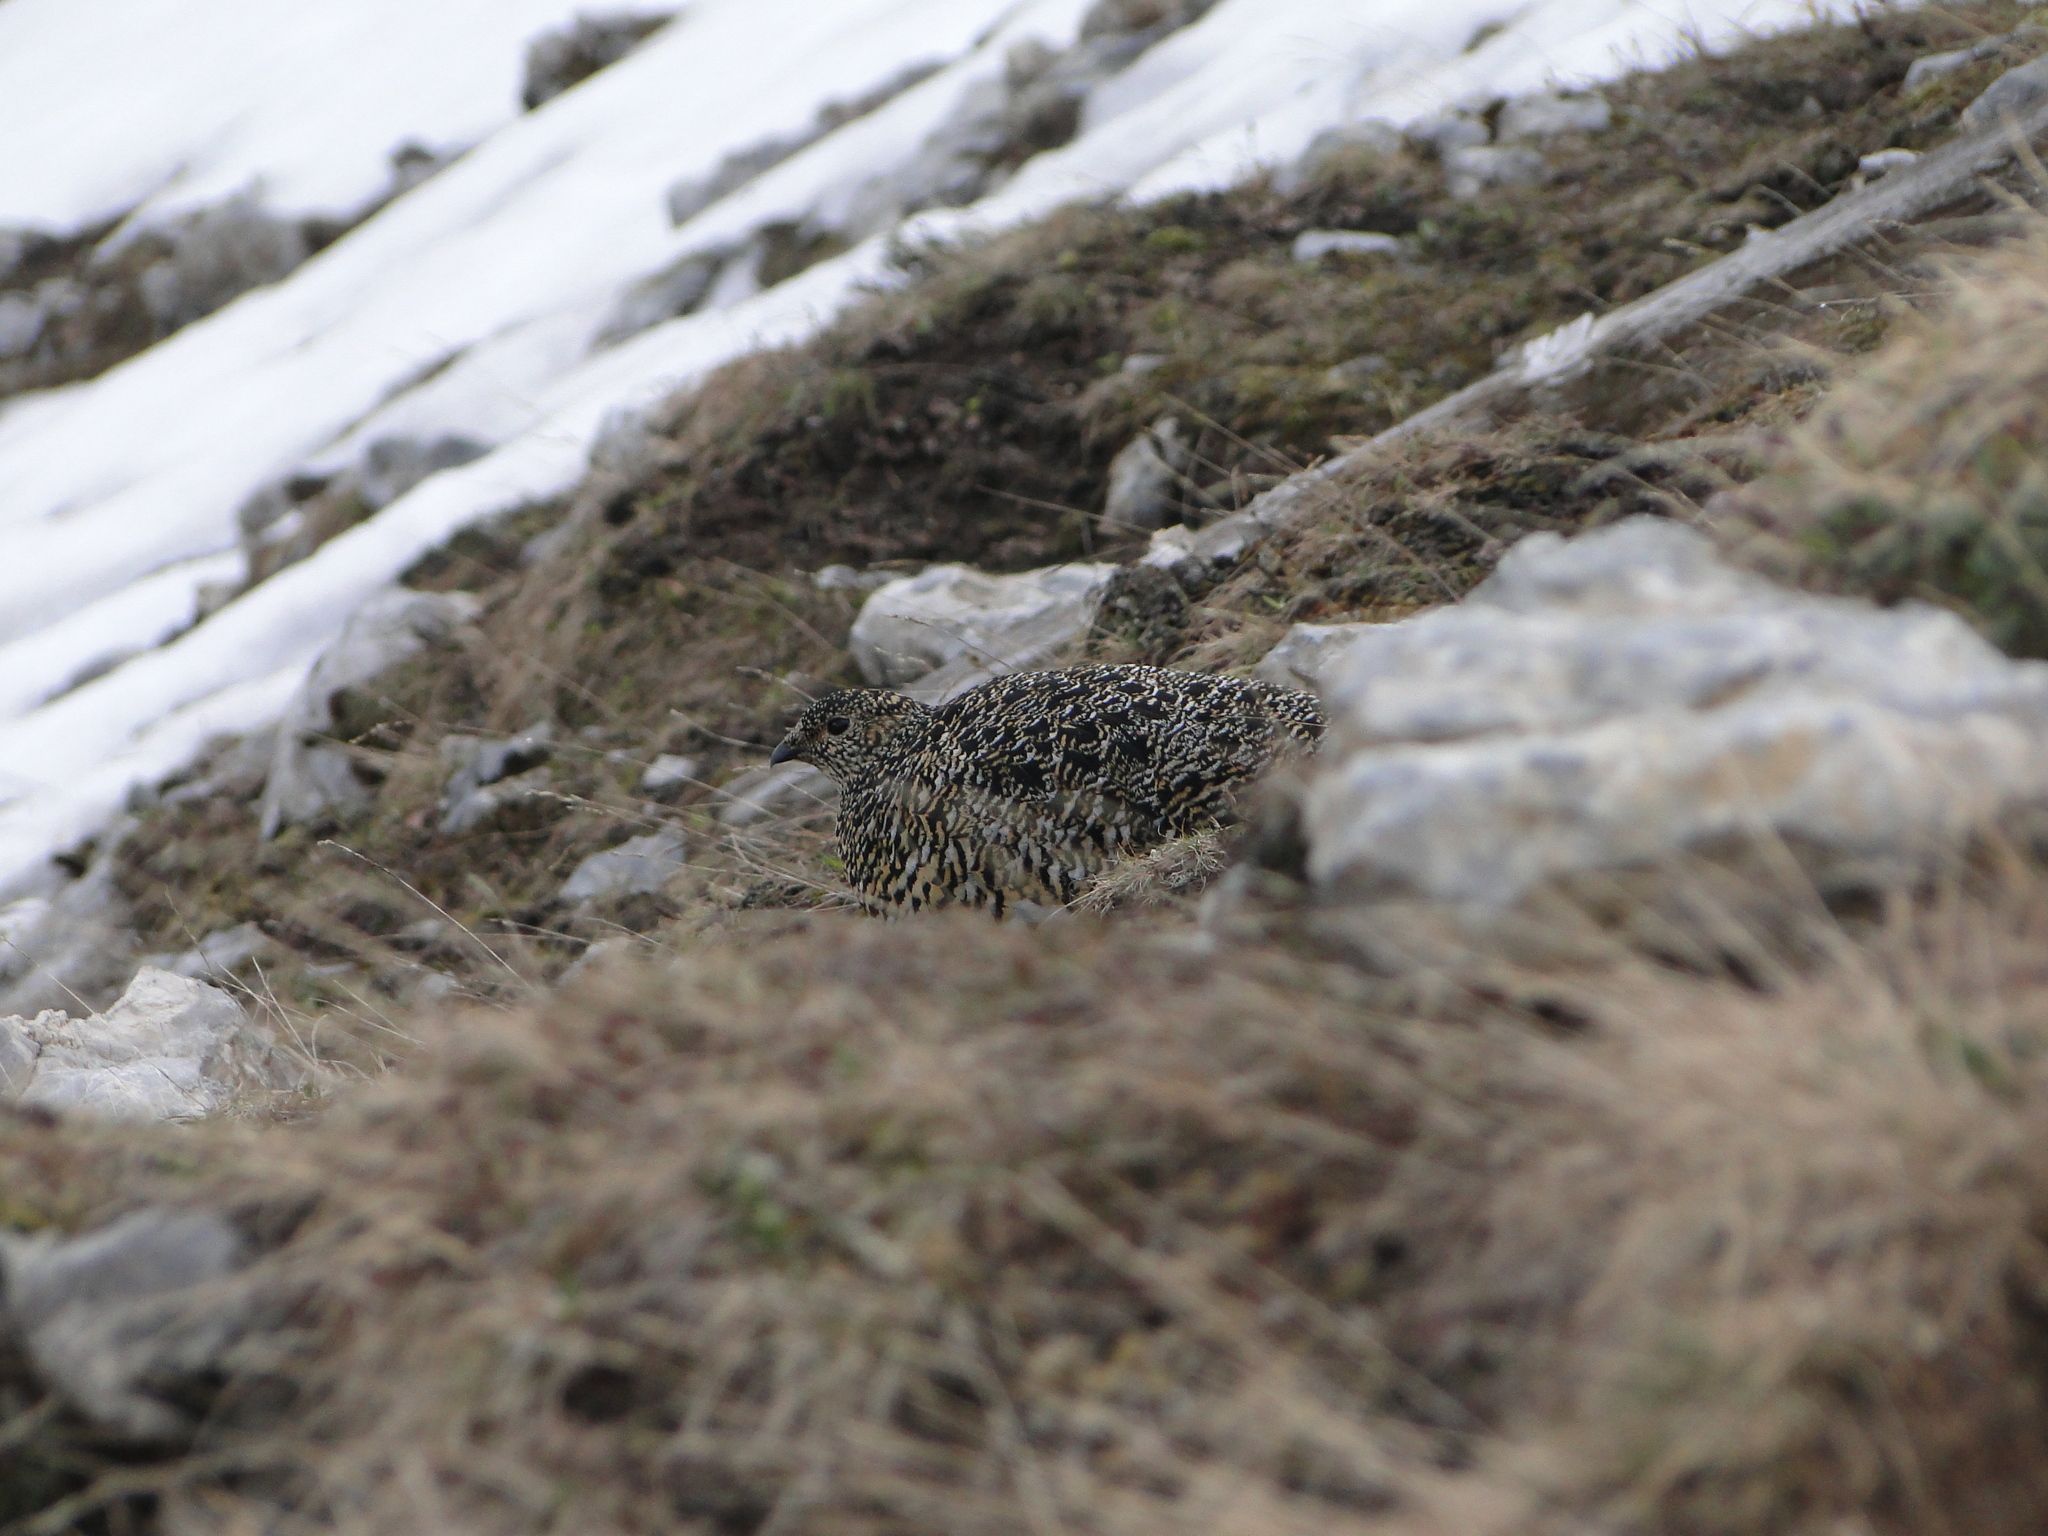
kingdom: Animalia
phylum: Chordata
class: Aves
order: Galliformes
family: Phasianidae
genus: Lagopus
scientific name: Lagopus muta
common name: Rock ptarmigan
